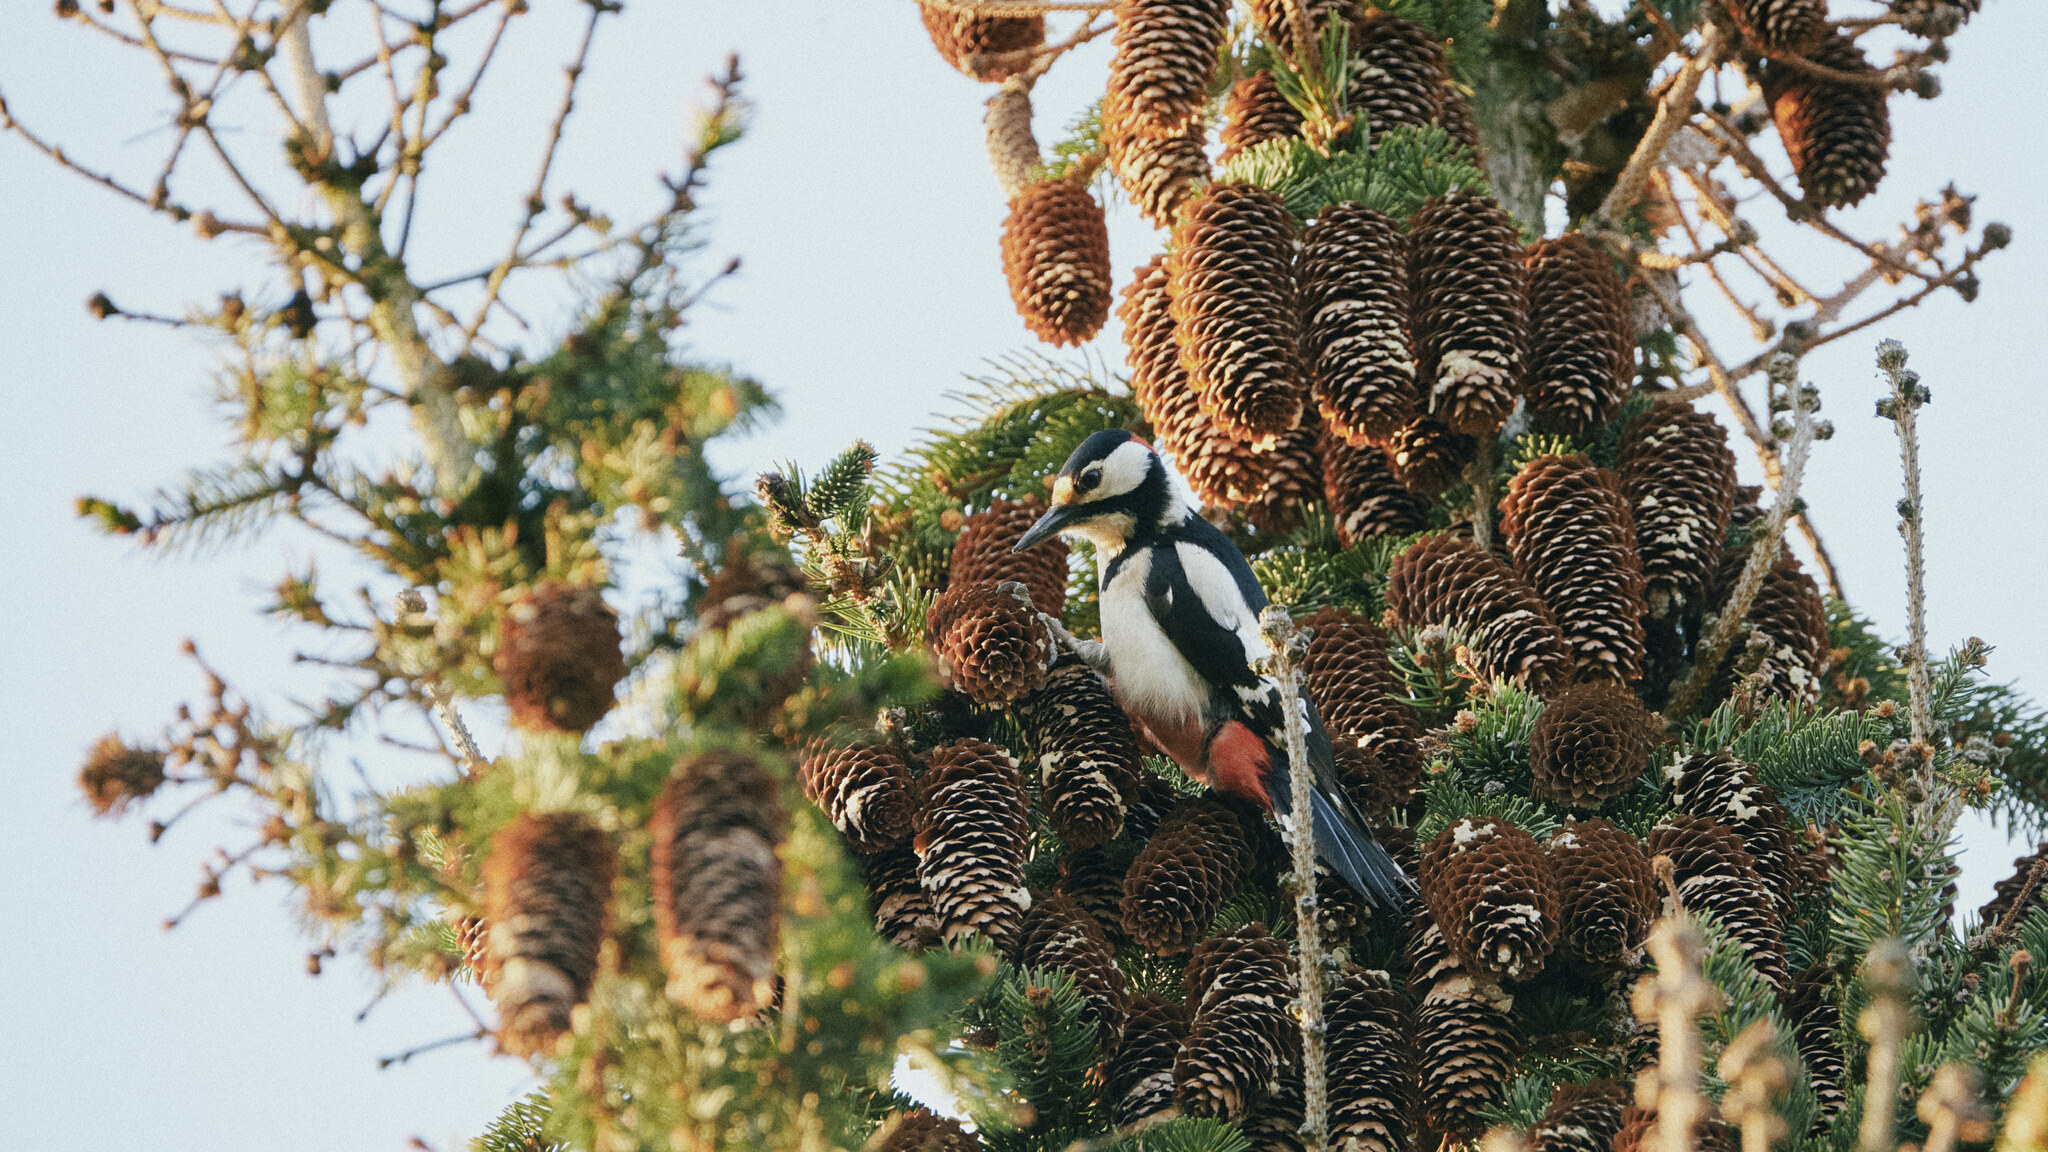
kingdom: Animalia
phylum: Chordata
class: Aves
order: Piciformes
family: Picidae
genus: Dendrocopos
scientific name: Dendrocopos major
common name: Great spotted woodpecker
